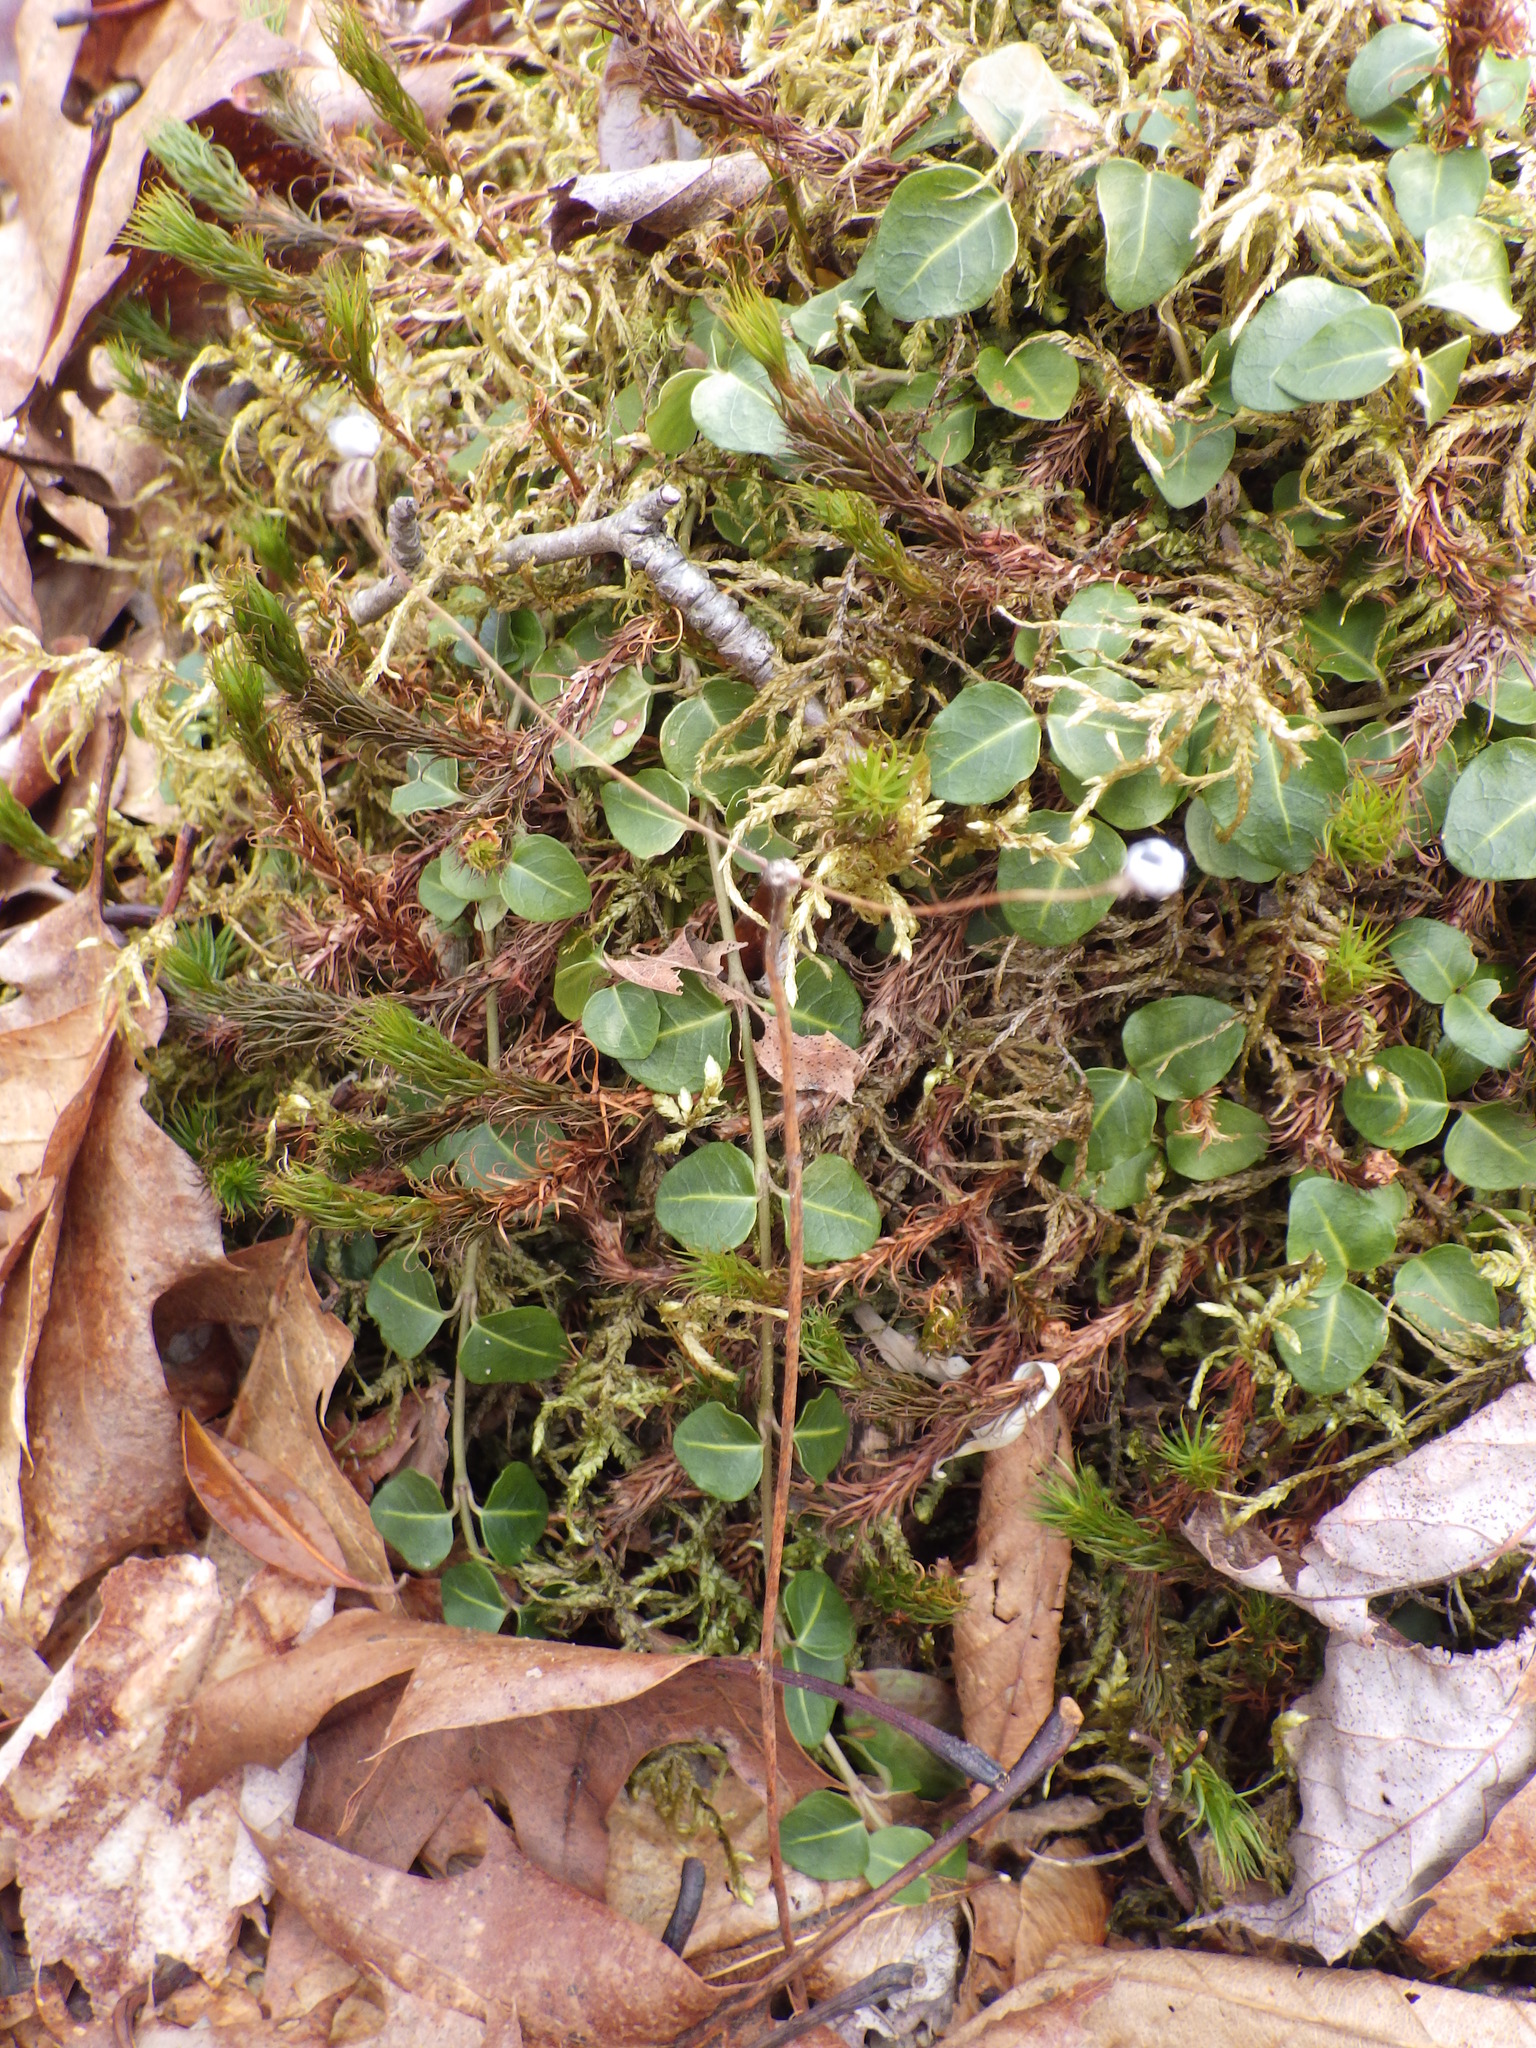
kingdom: Plantae
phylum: Tracheophyta
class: Magnoliopsida
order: Dipsacales
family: Caprifoliaceae
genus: Linnaea
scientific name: Linnaea borealis
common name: Twinflower
